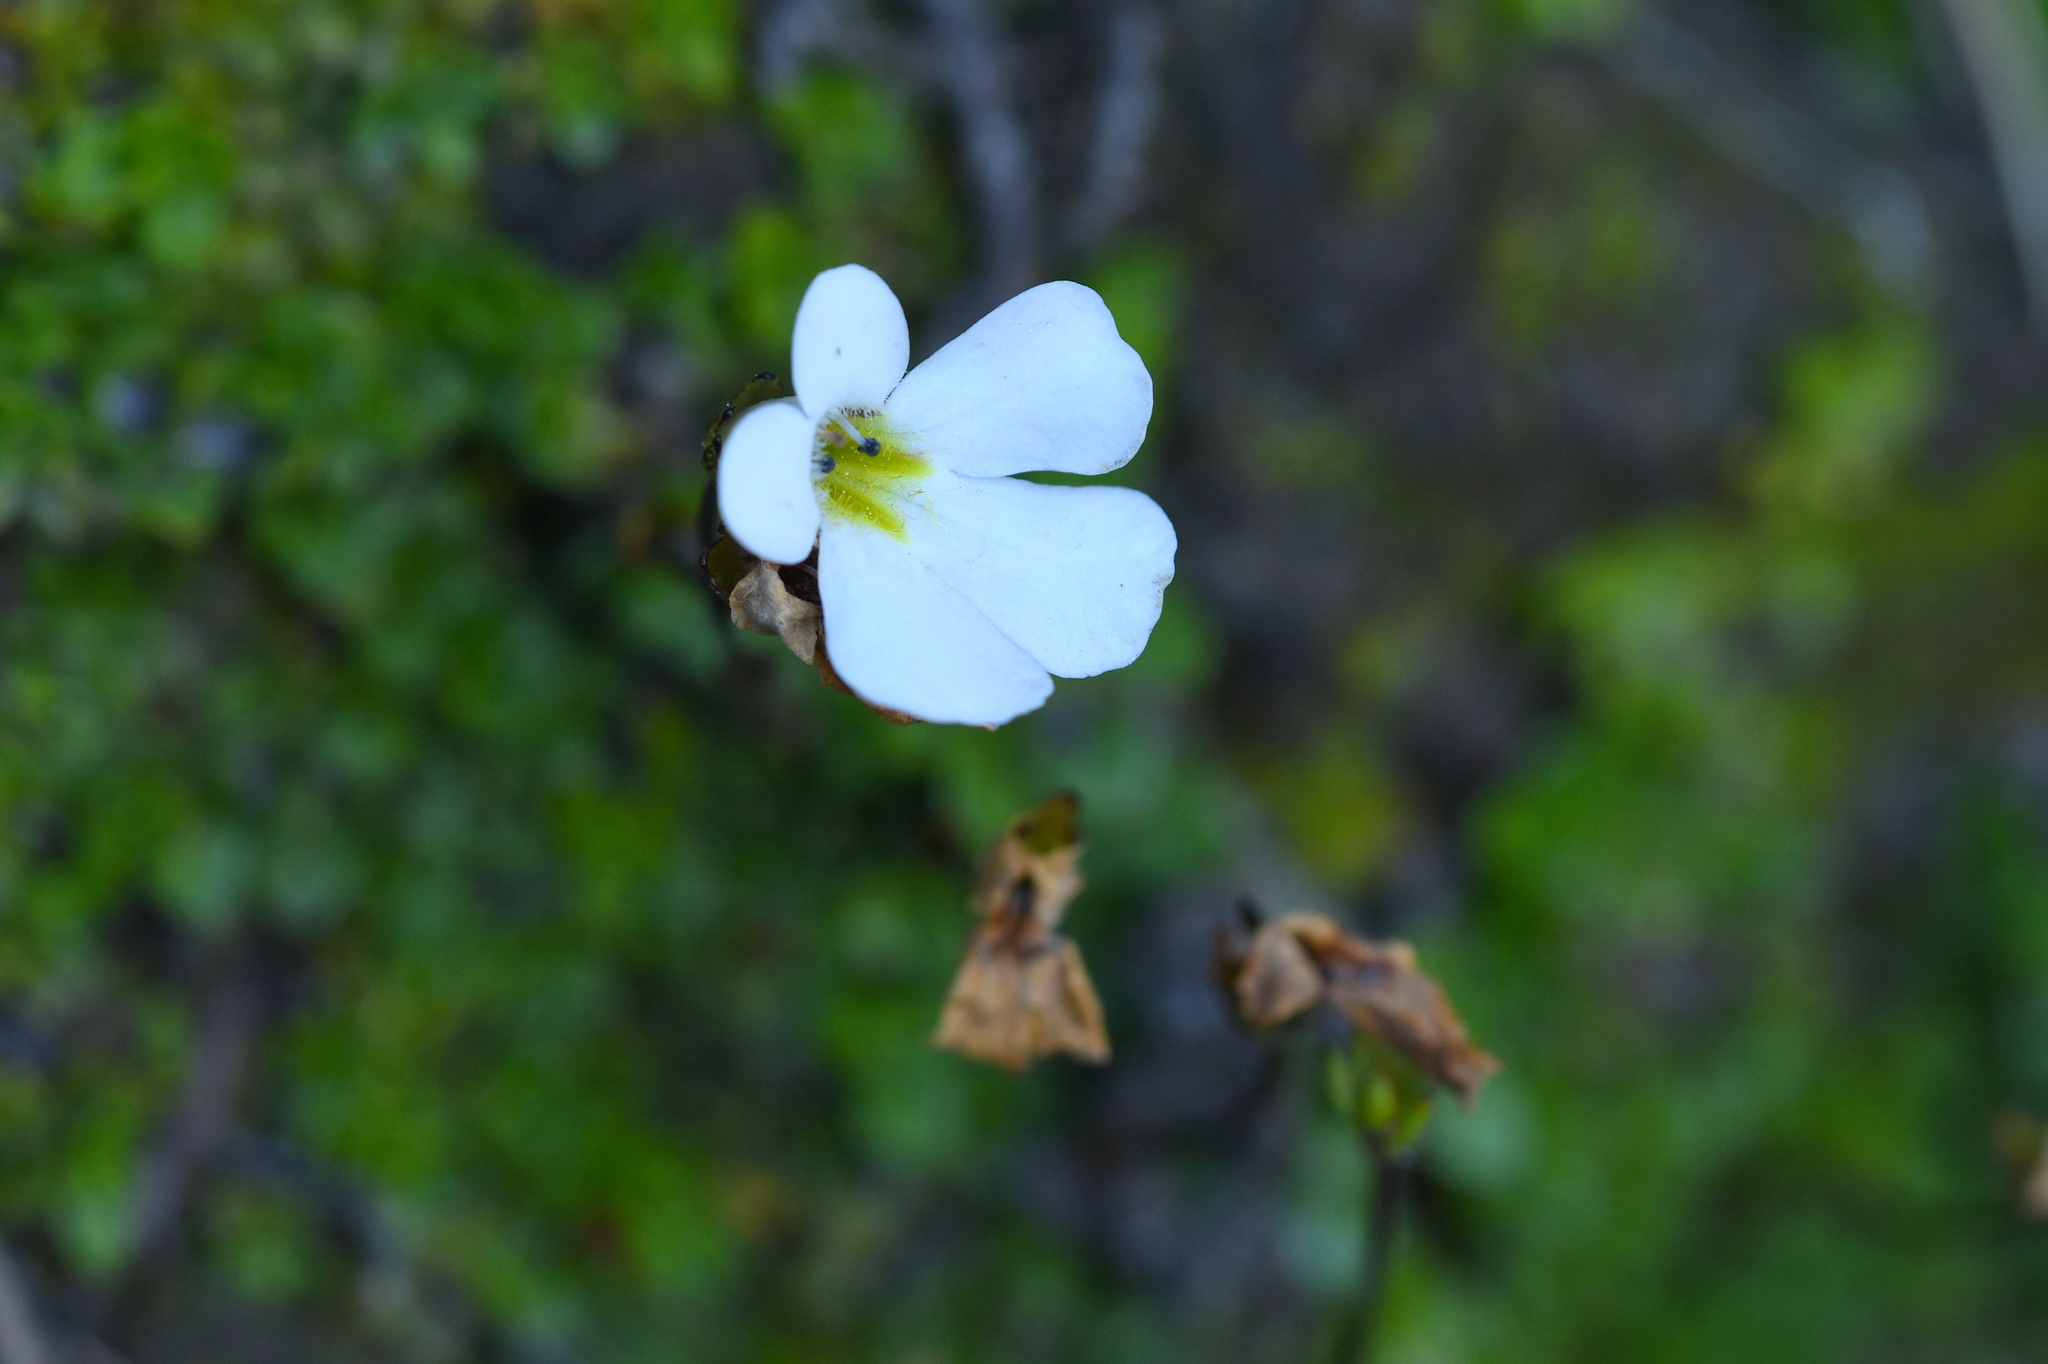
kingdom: Plantae
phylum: Tracheophyta
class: Magnoliopsida
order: Lamiales
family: Plantaginaceae
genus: Ourisia
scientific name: Ourisia caespitosa
